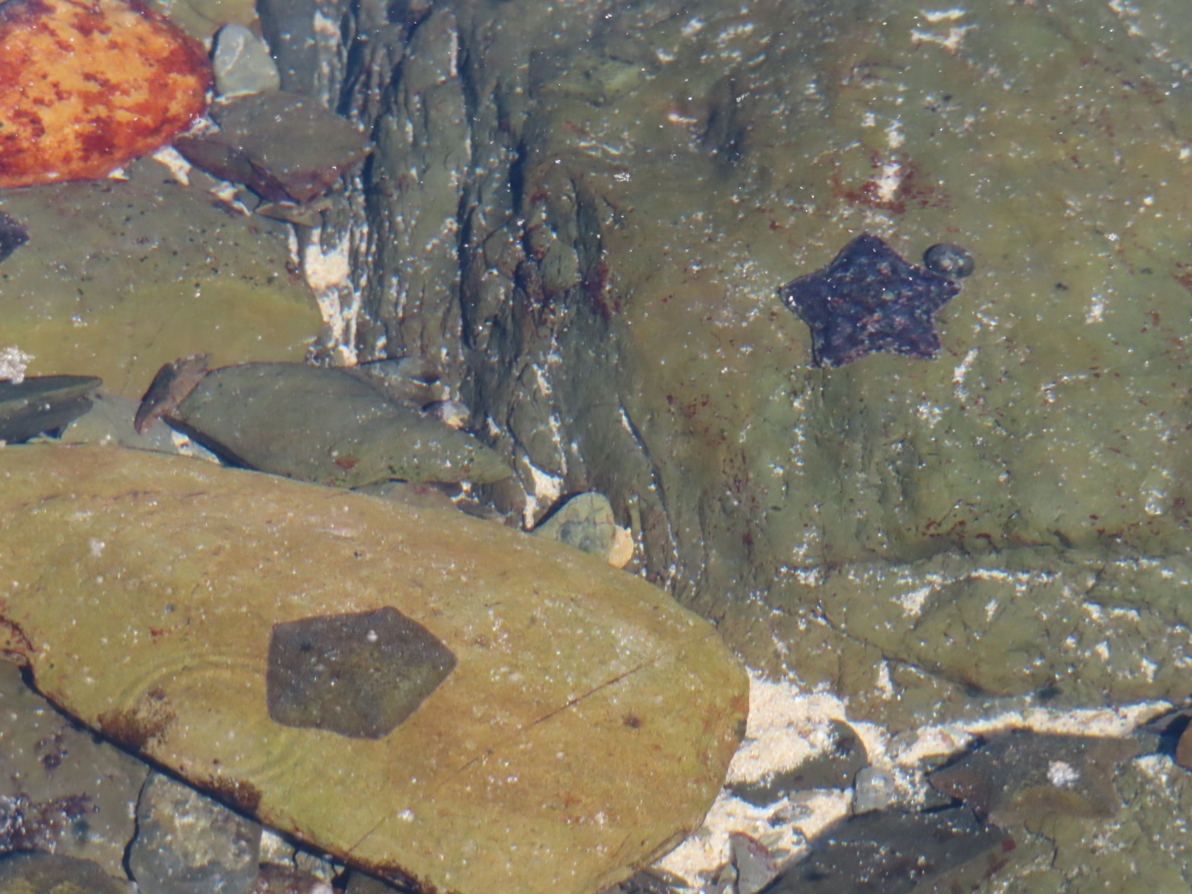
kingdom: Animalia
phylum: Echinodermata
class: Asteroidea
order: Valvatida
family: Asterinidae
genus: Parvulastra
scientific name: Parvulastra exigua
